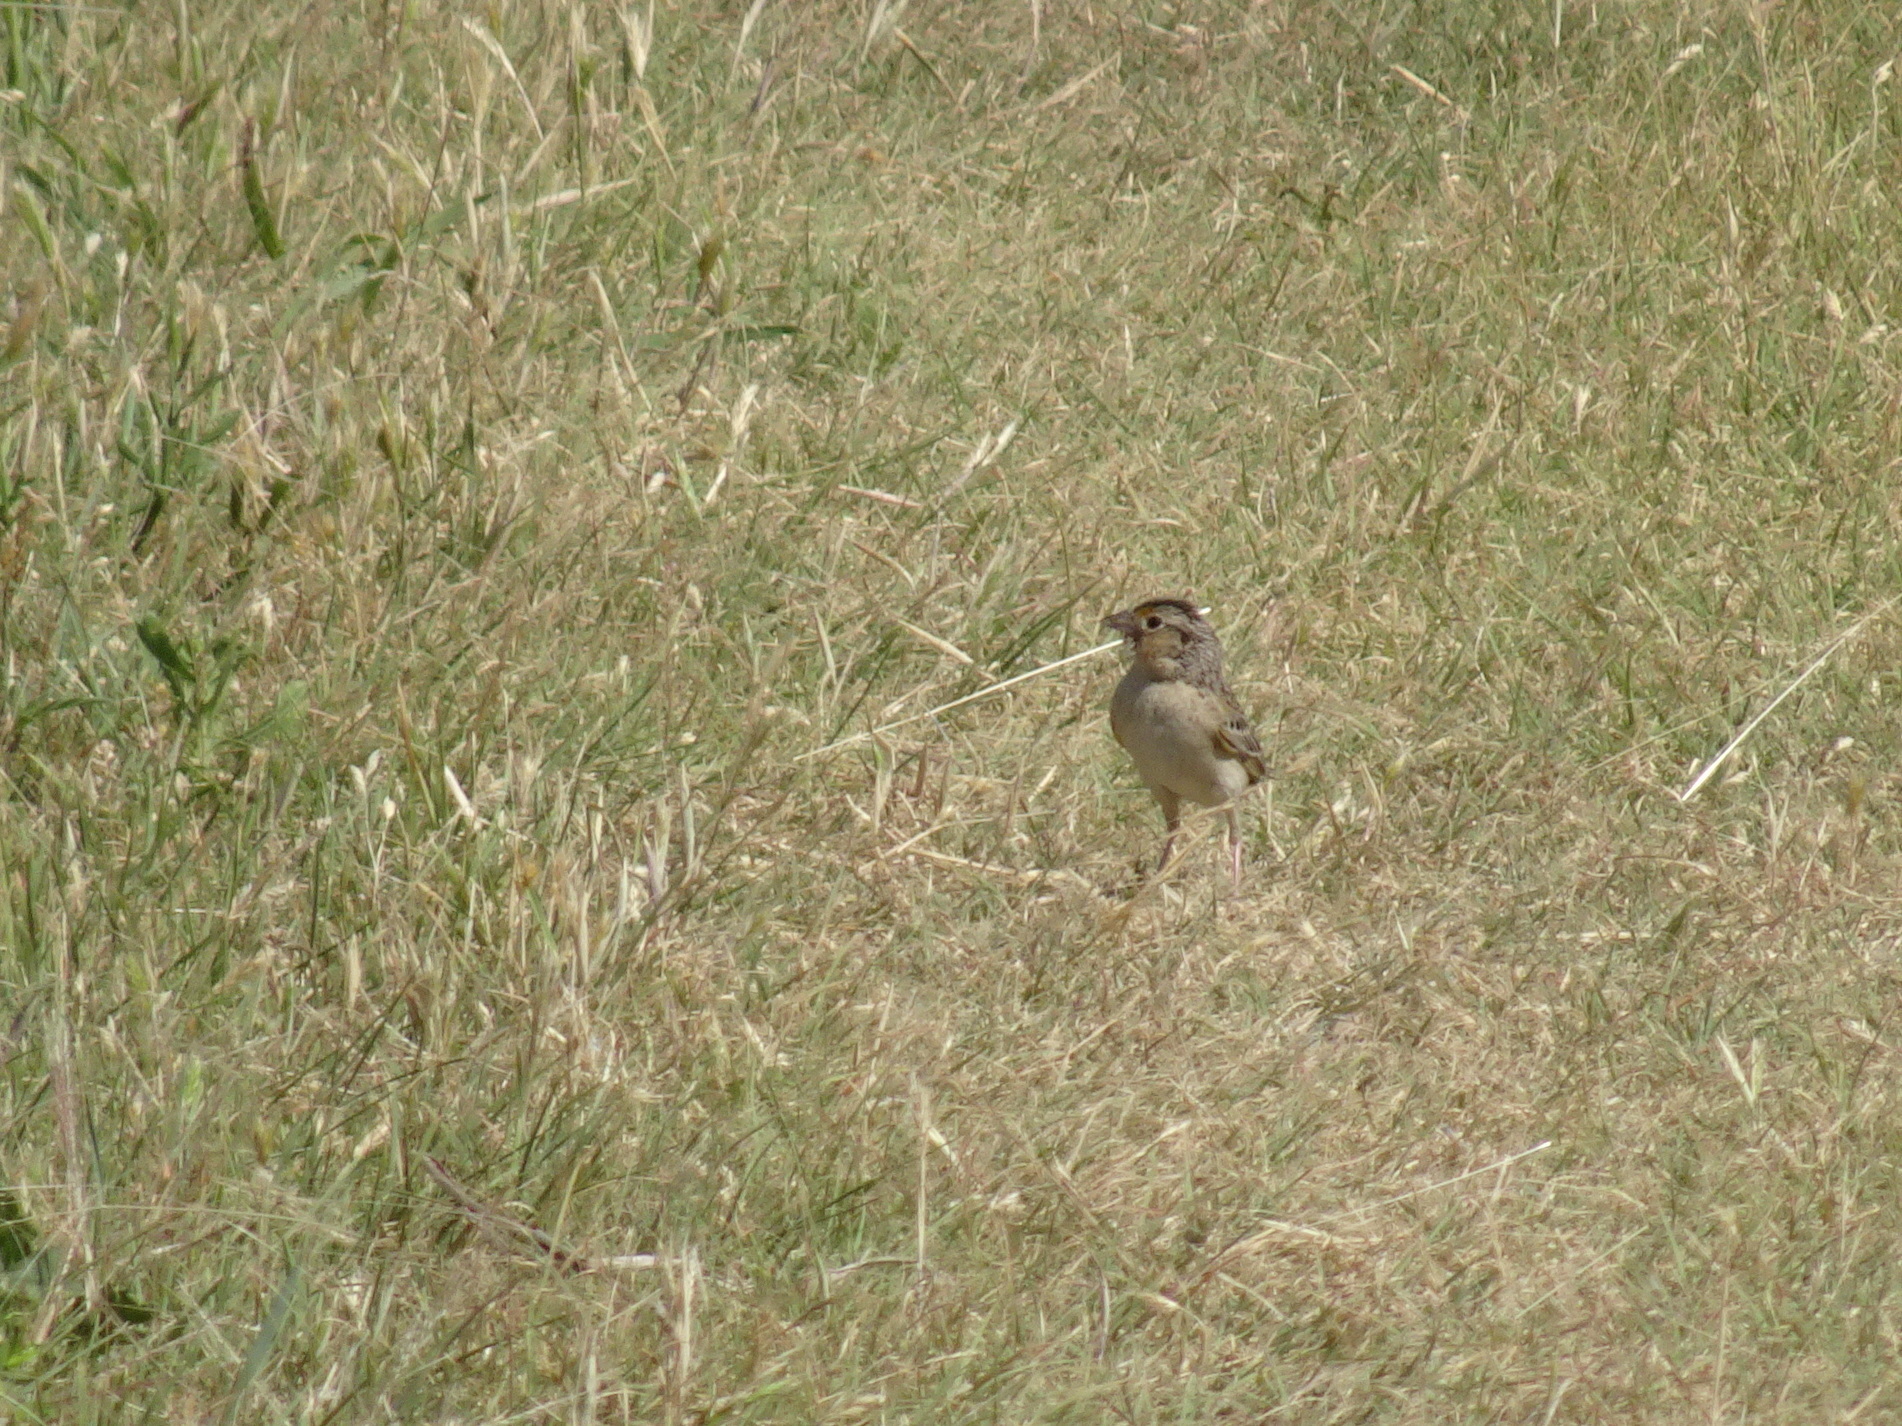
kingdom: Animalia
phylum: Chordata
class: Aves
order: Passeriformes
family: Passerellidae
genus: Ammodramus
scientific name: Ammodramus savannarum
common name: Grasshopper sparrow
